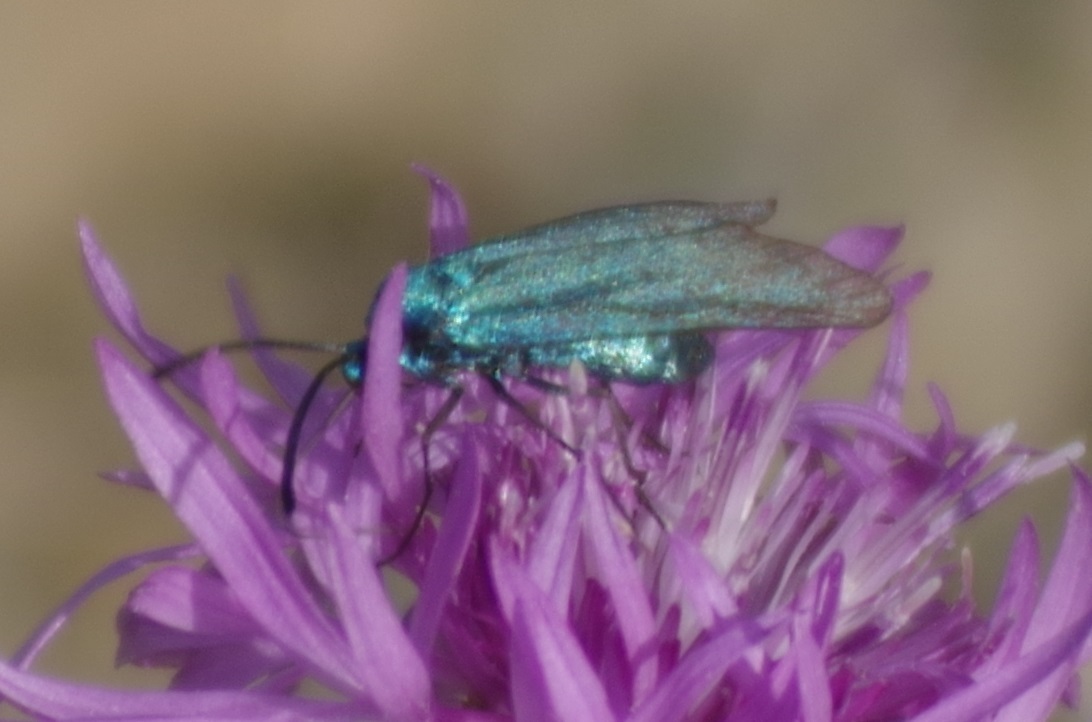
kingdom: Animalia
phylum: Arthropoda
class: Insecta
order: Lepidoptera
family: Zygaenidae
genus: Adscita
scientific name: Adscita statices
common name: Forester
